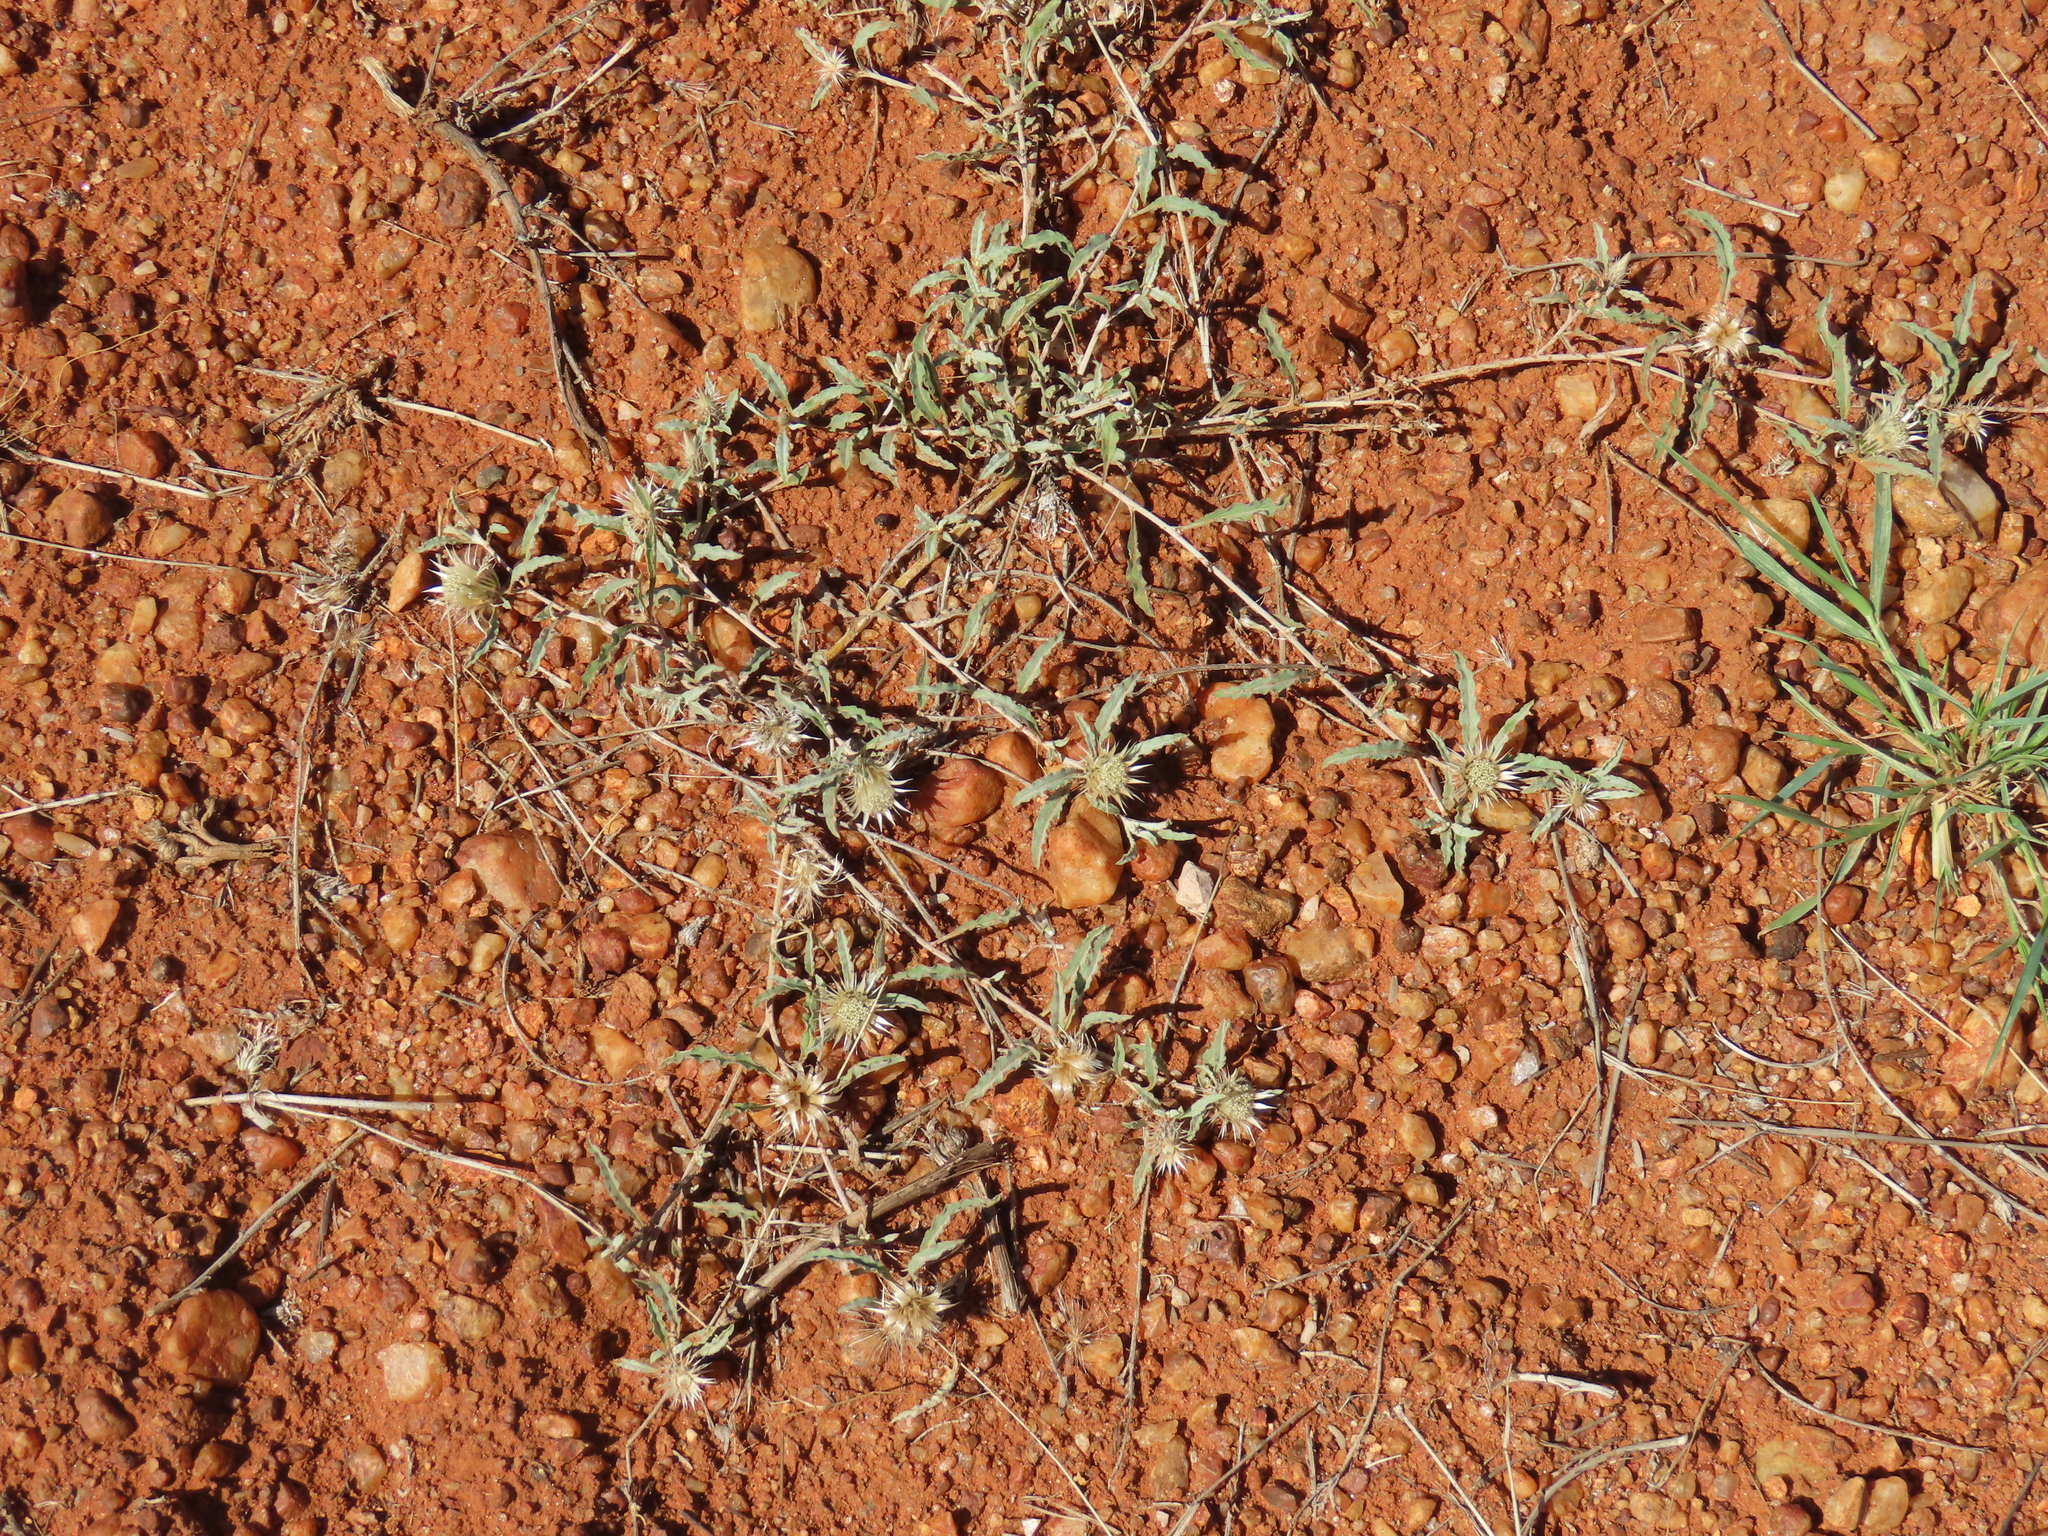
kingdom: Plantae
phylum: Tracheophyta
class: Magnoliopsida
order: Asterales
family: Asteraceae
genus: Dicoma
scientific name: Dicoma capensis
